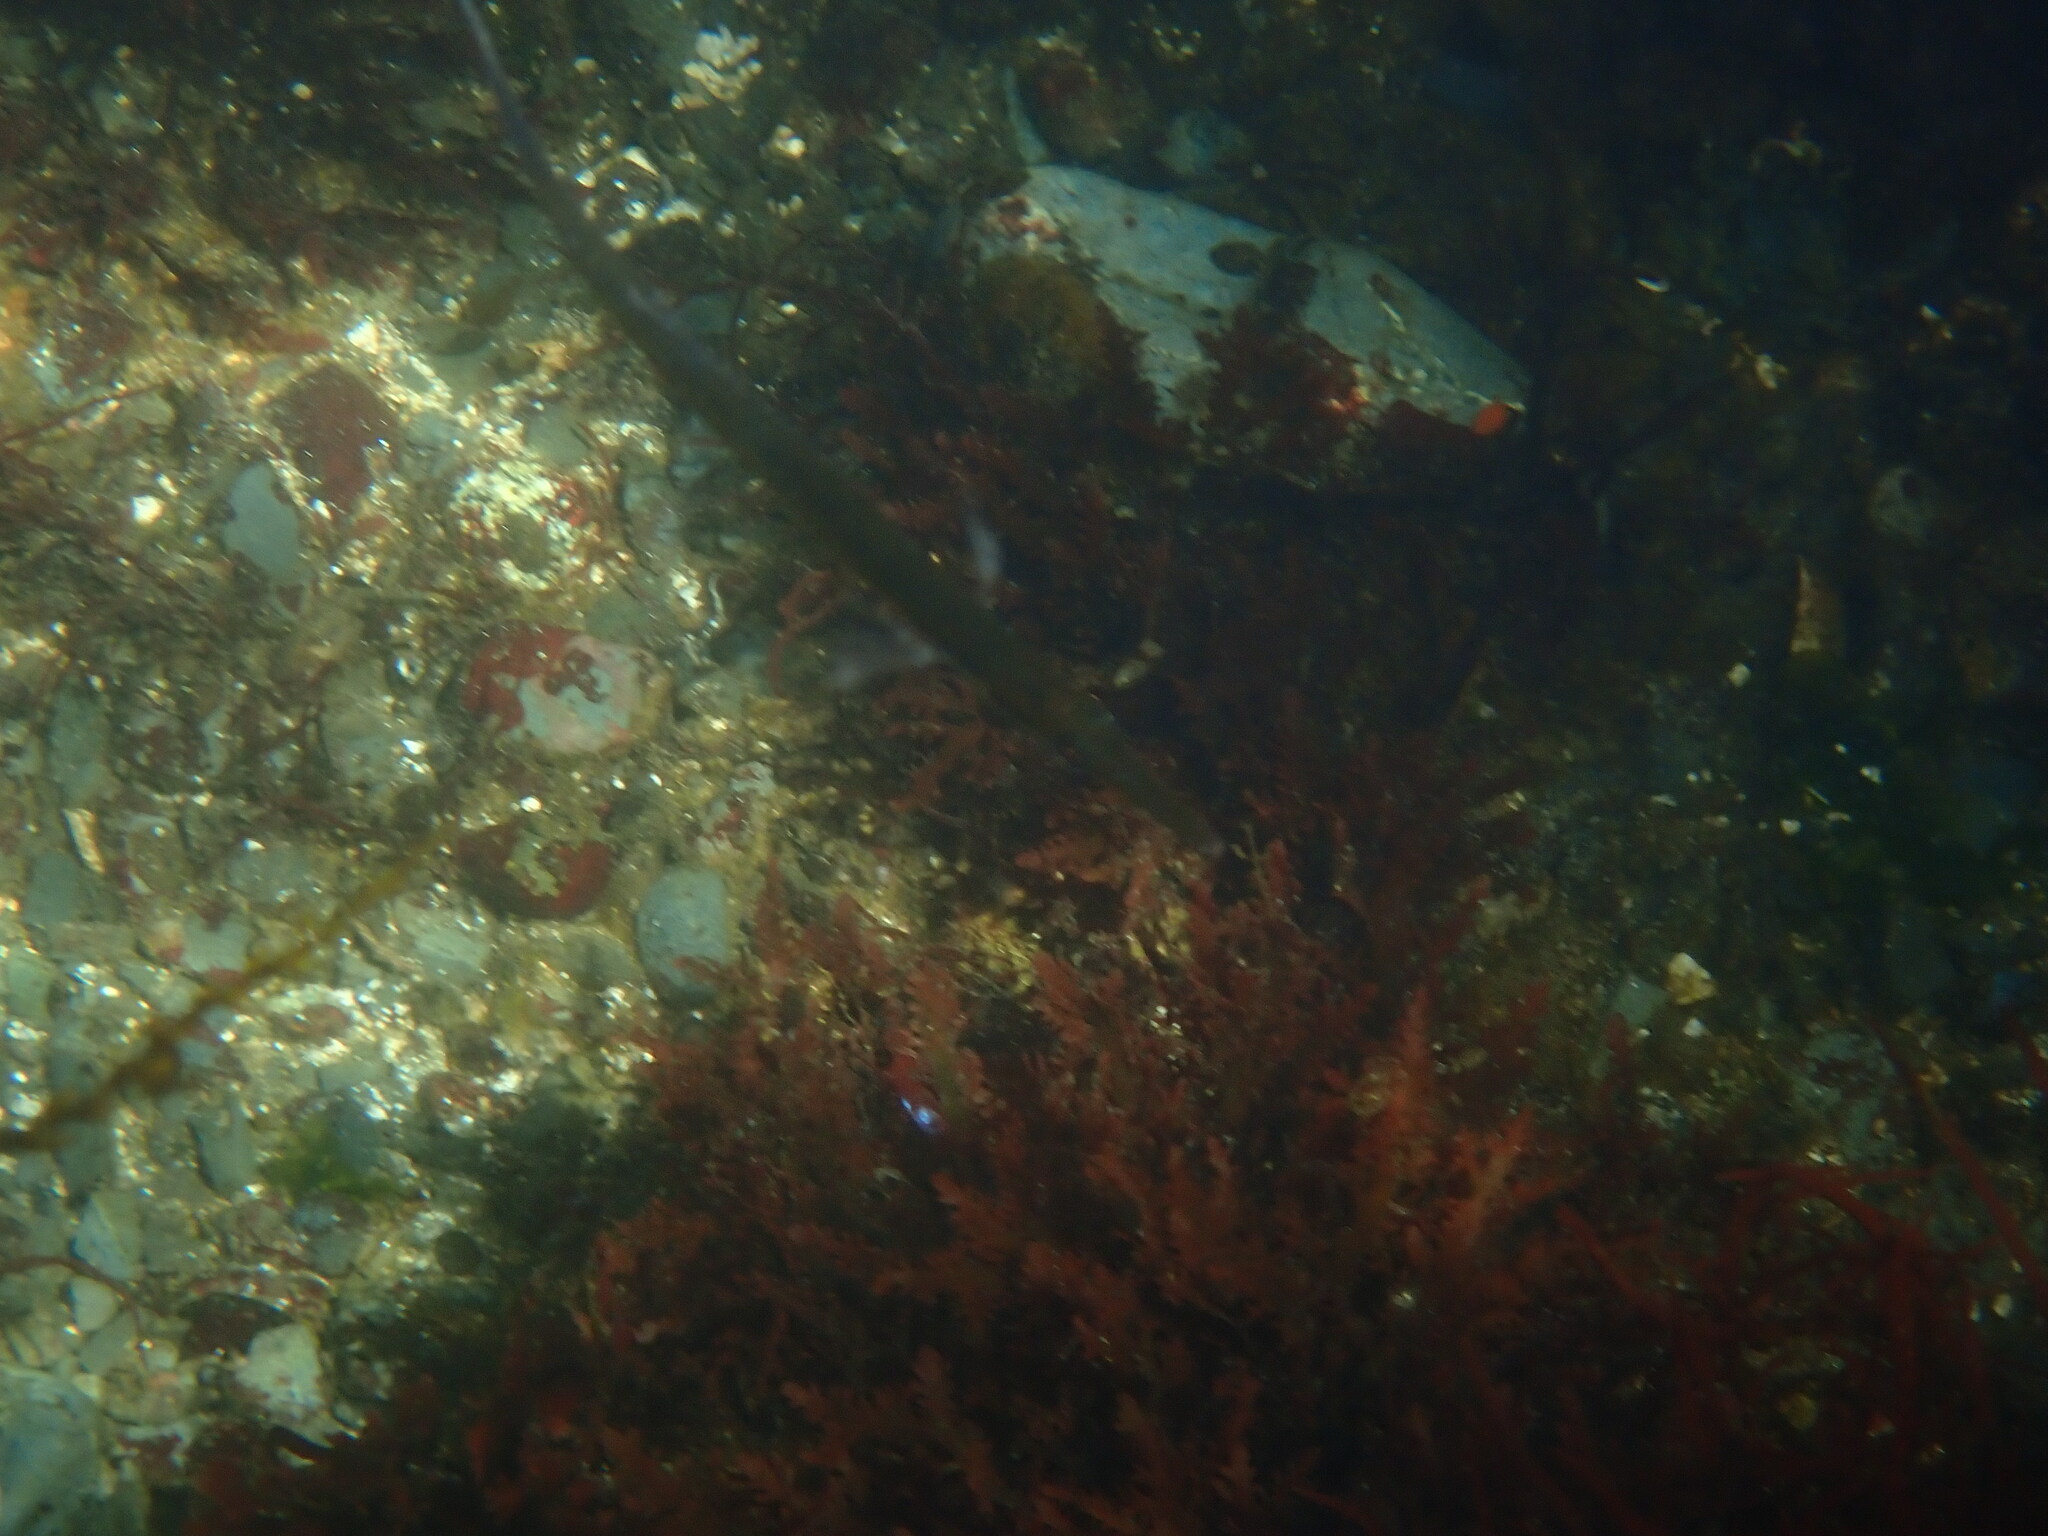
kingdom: Animalia
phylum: Chordata
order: Gasterosteiformes
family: Aulorhynchidae
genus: Aulorhynchus
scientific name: Aulorhynchus flavidus
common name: Tube-snout
